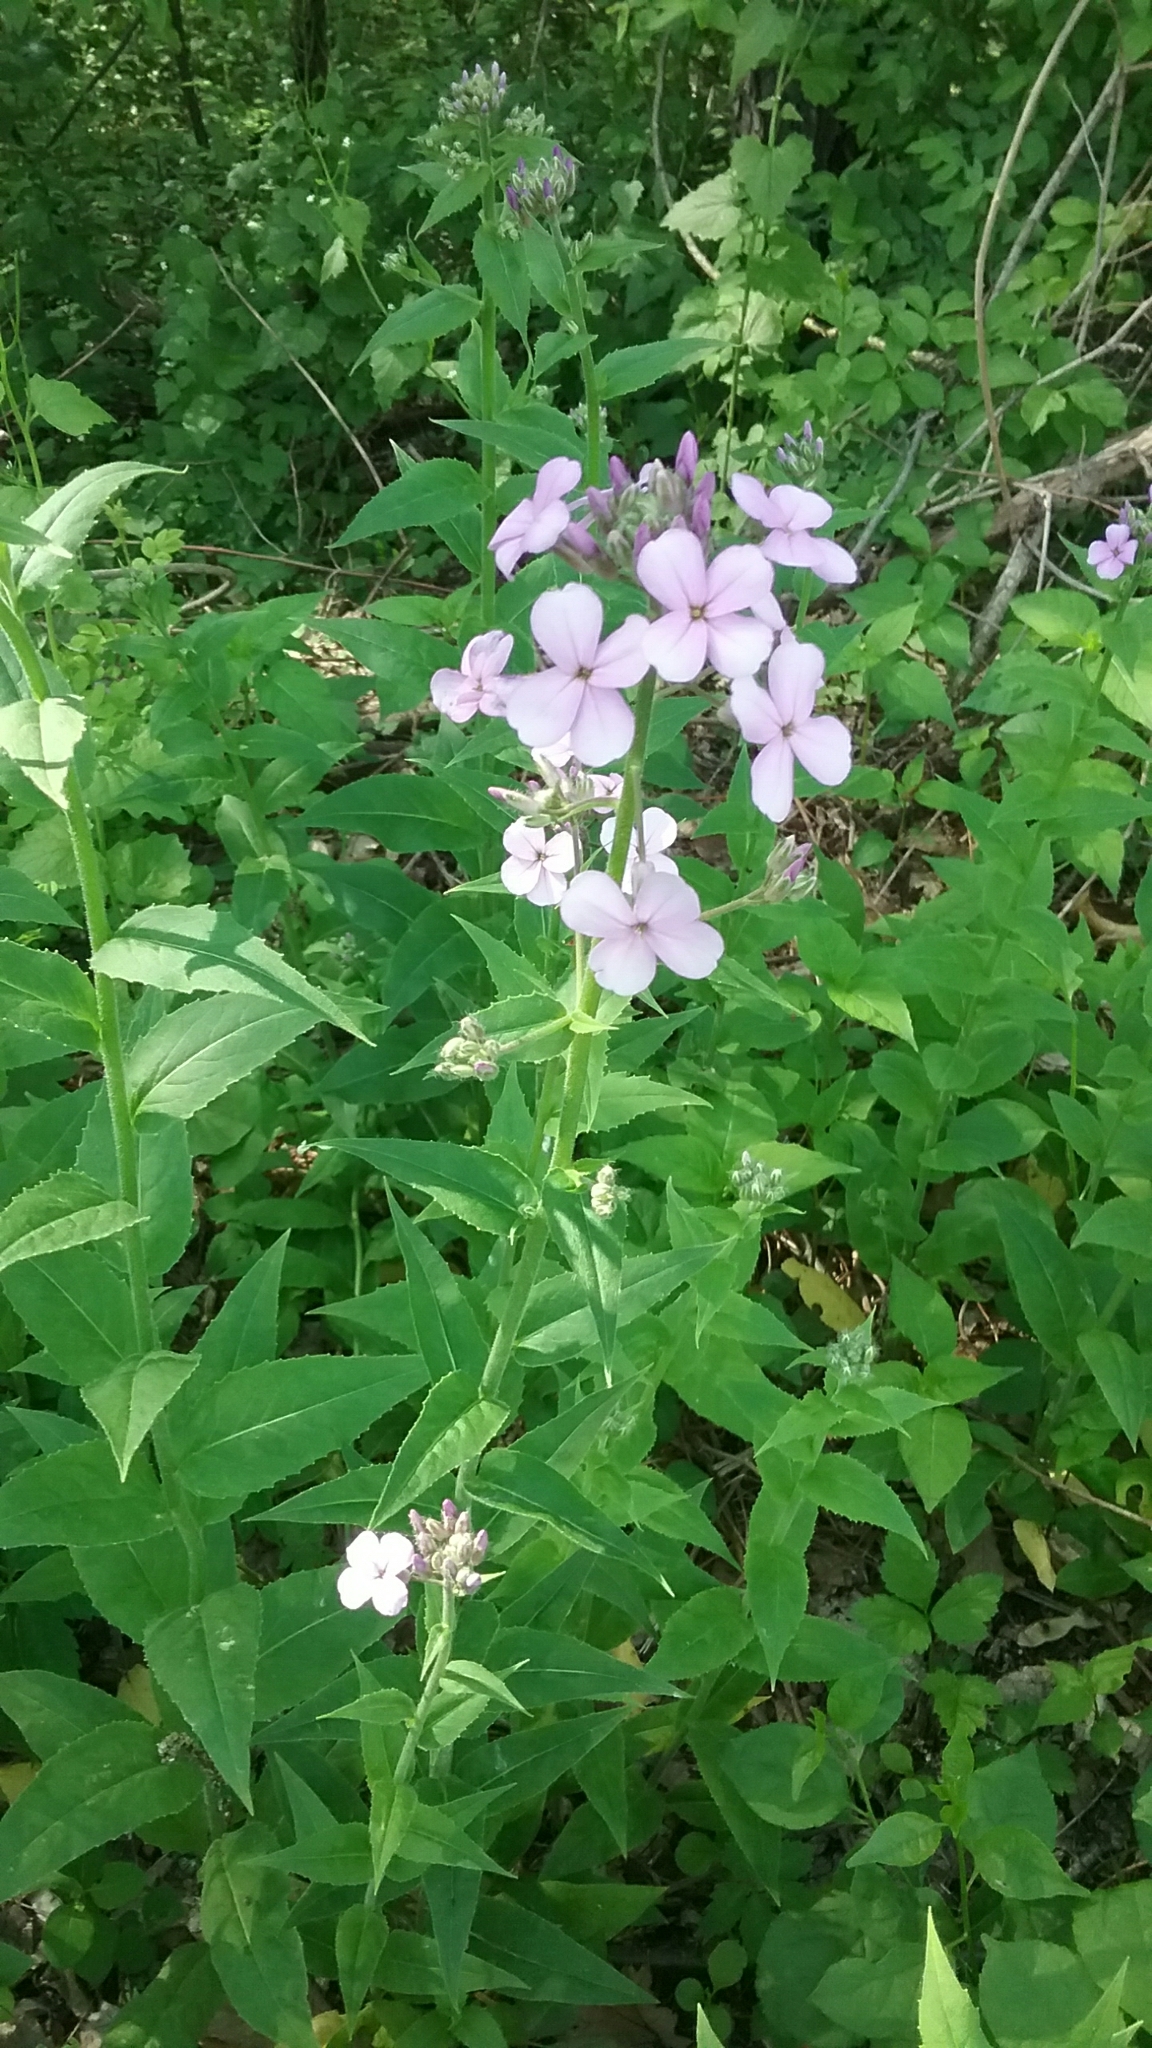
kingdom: Plantae
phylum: Tracheophyta
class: Magnoliopsida
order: Brassicales
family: Brassicaceae
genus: Hesperis
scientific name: Hesperis matronalis
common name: Dame's-violet
